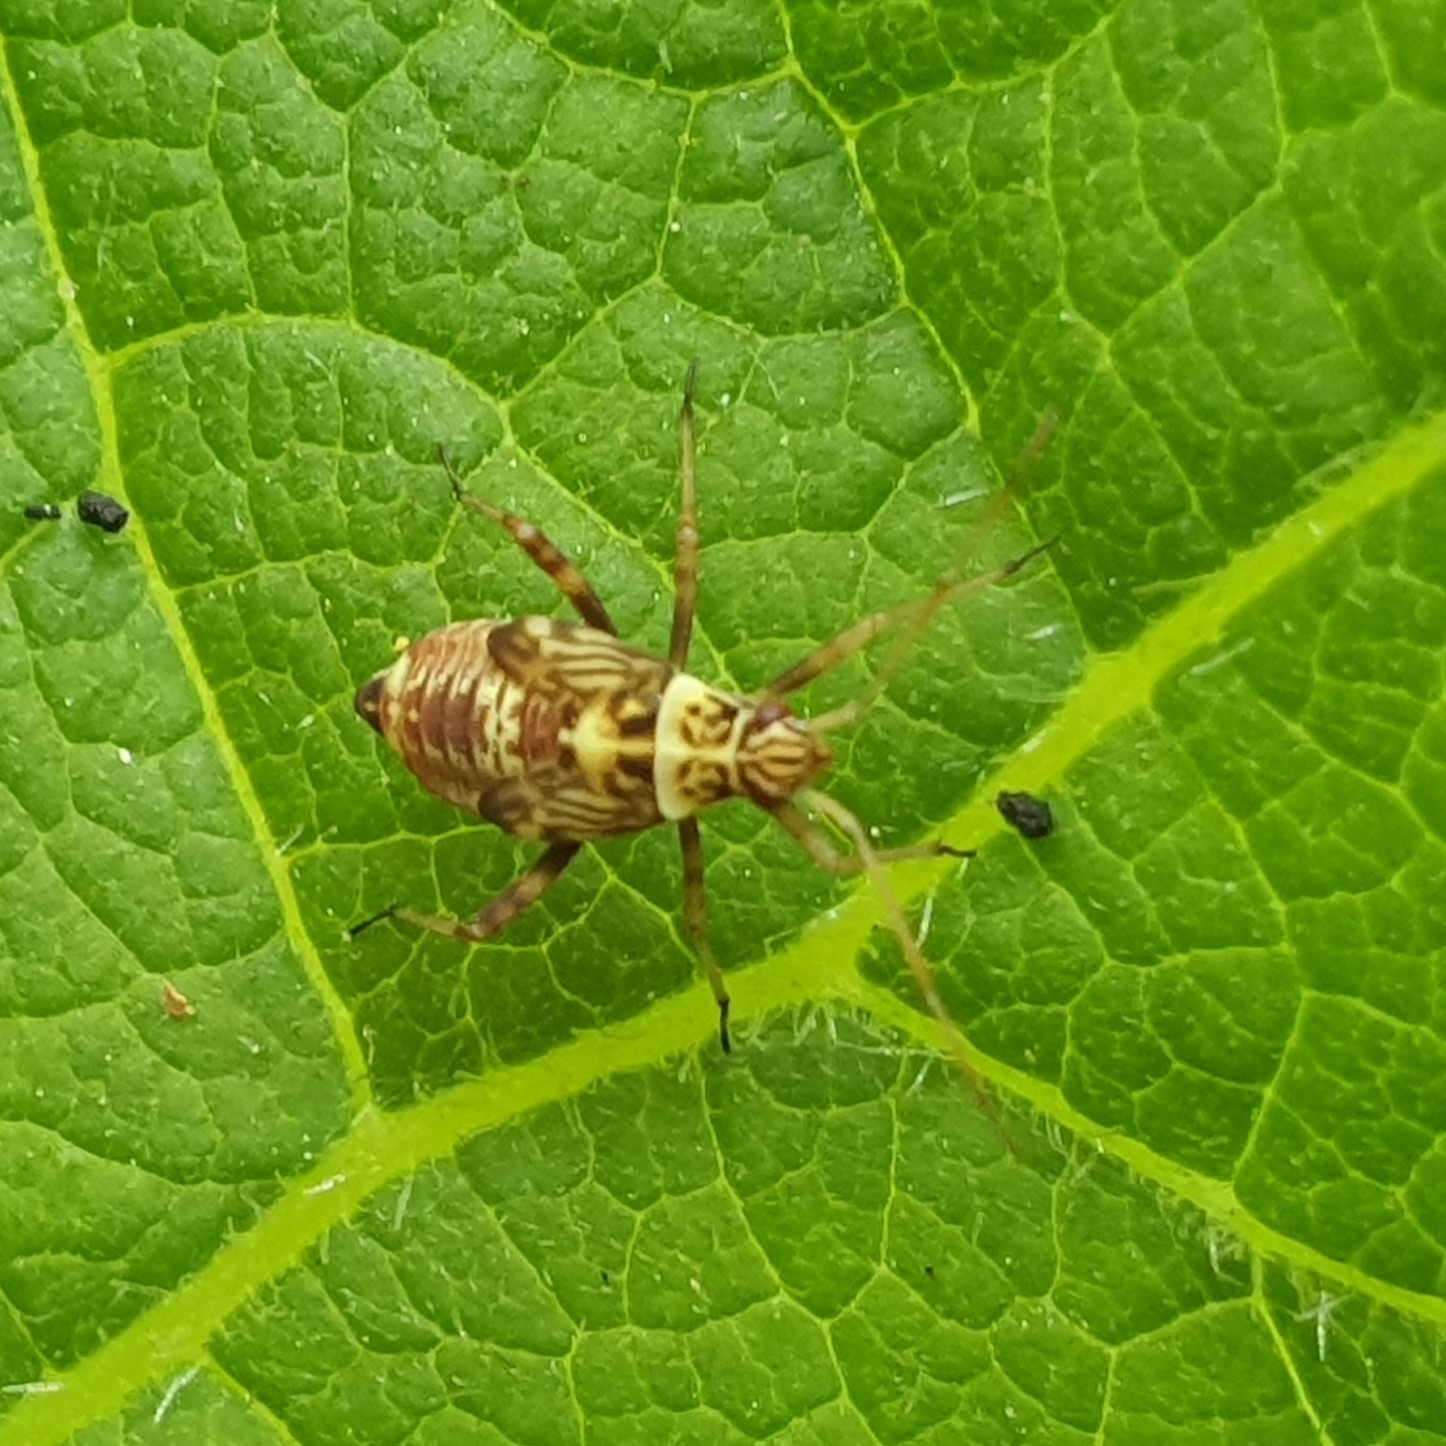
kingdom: Animalia
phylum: Arthropoda
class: Insecta
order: Hemiptera
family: Miridae
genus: Rhabdomiris
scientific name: Rhabdomiris striatellus
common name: Plant bug
